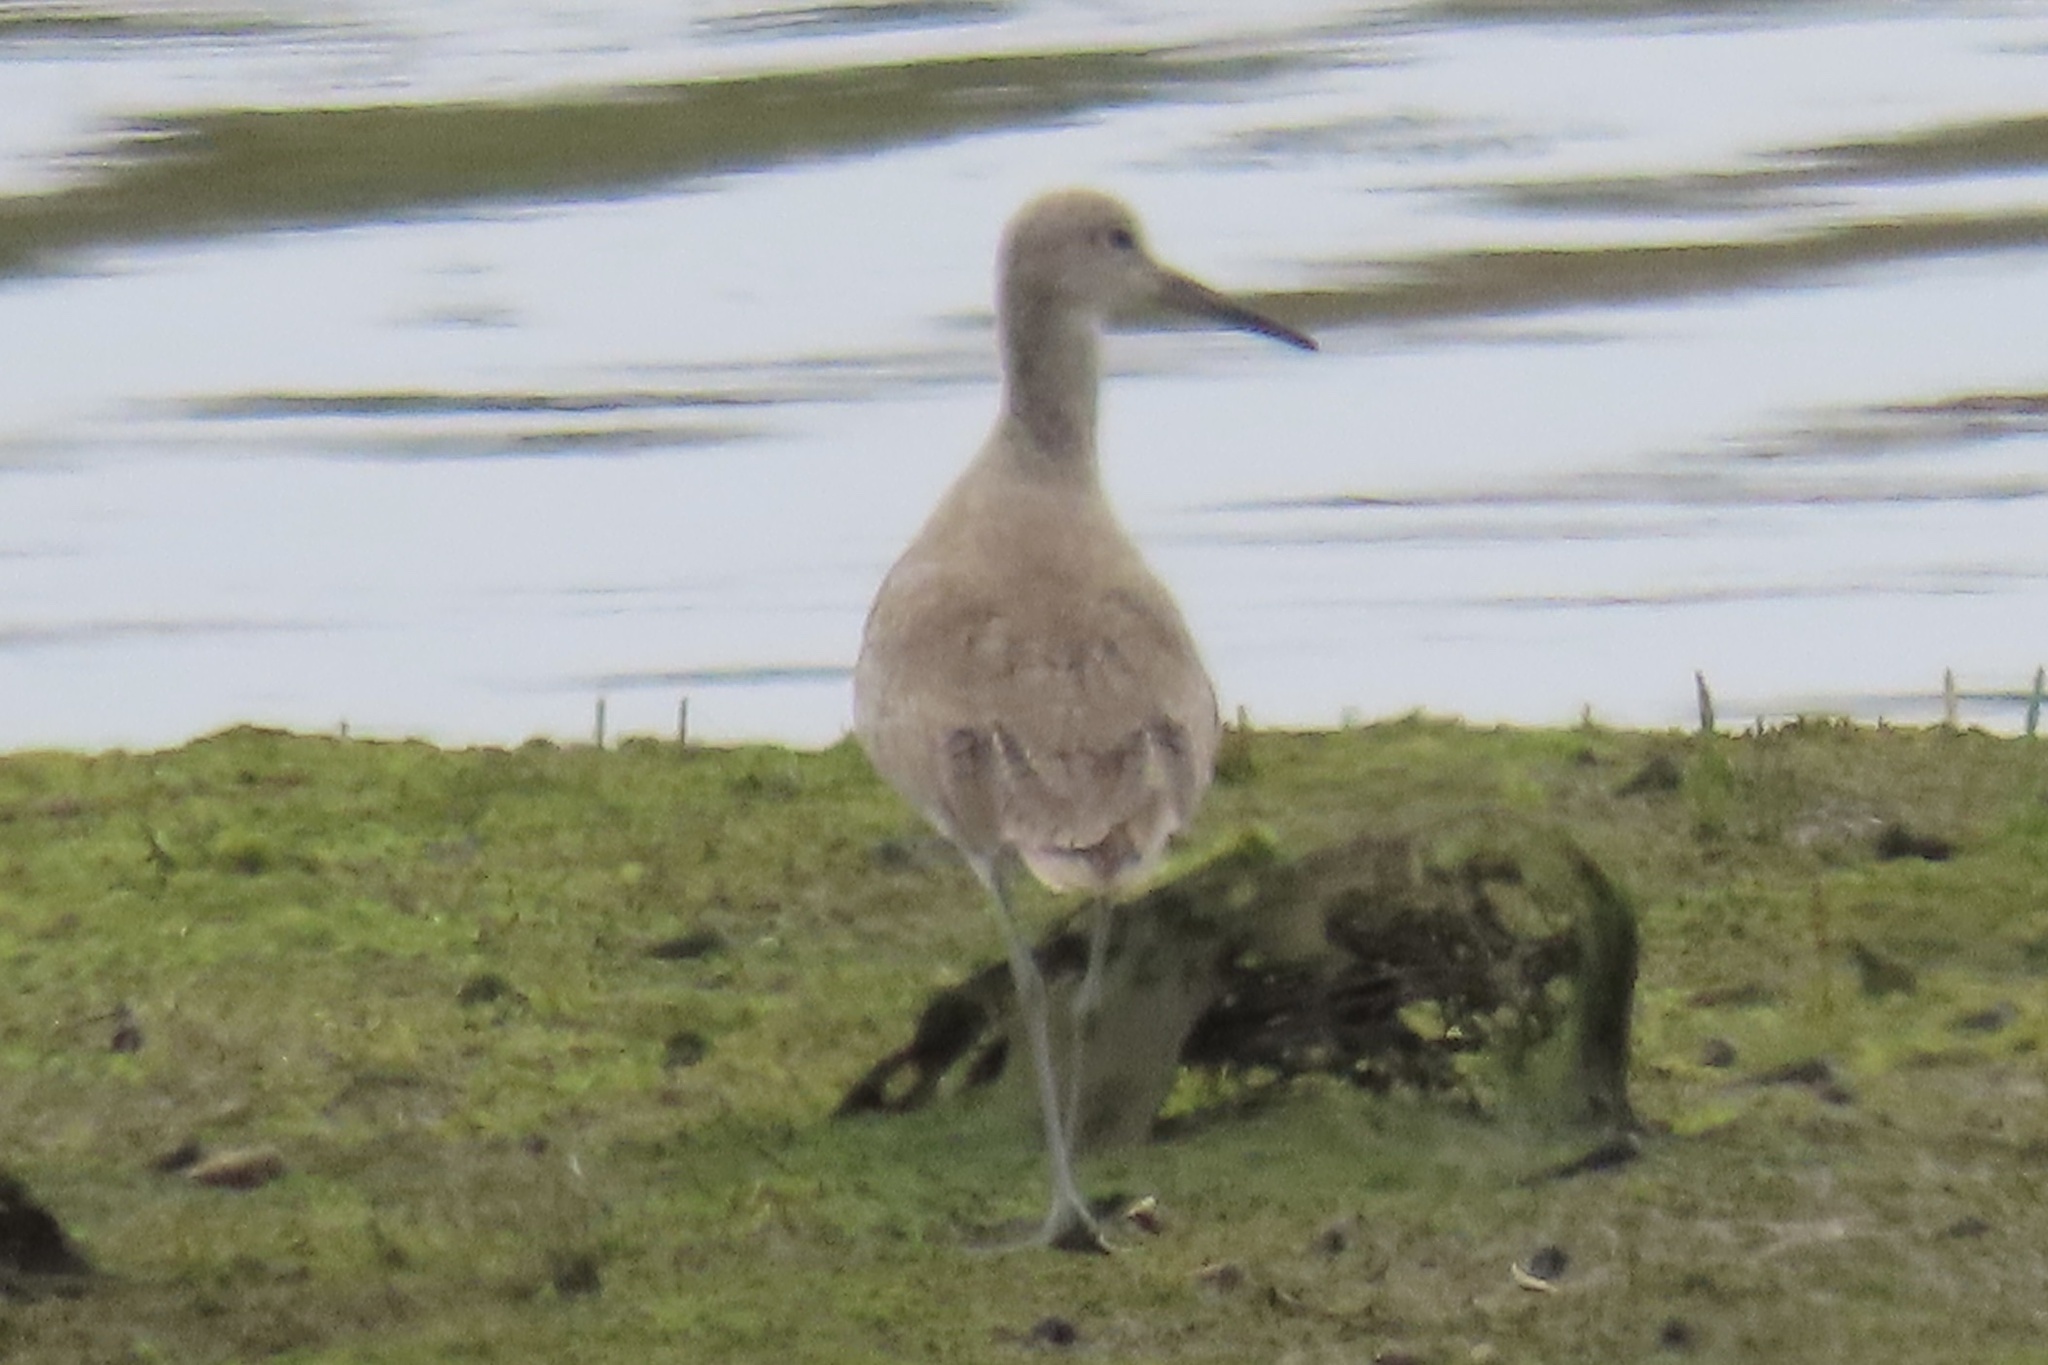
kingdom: Animalia
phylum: Chordata
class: Aves
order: Charadriiformes
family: Scolopacidae
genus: Tringa
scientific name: Tringa semipalmata
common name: Willet
